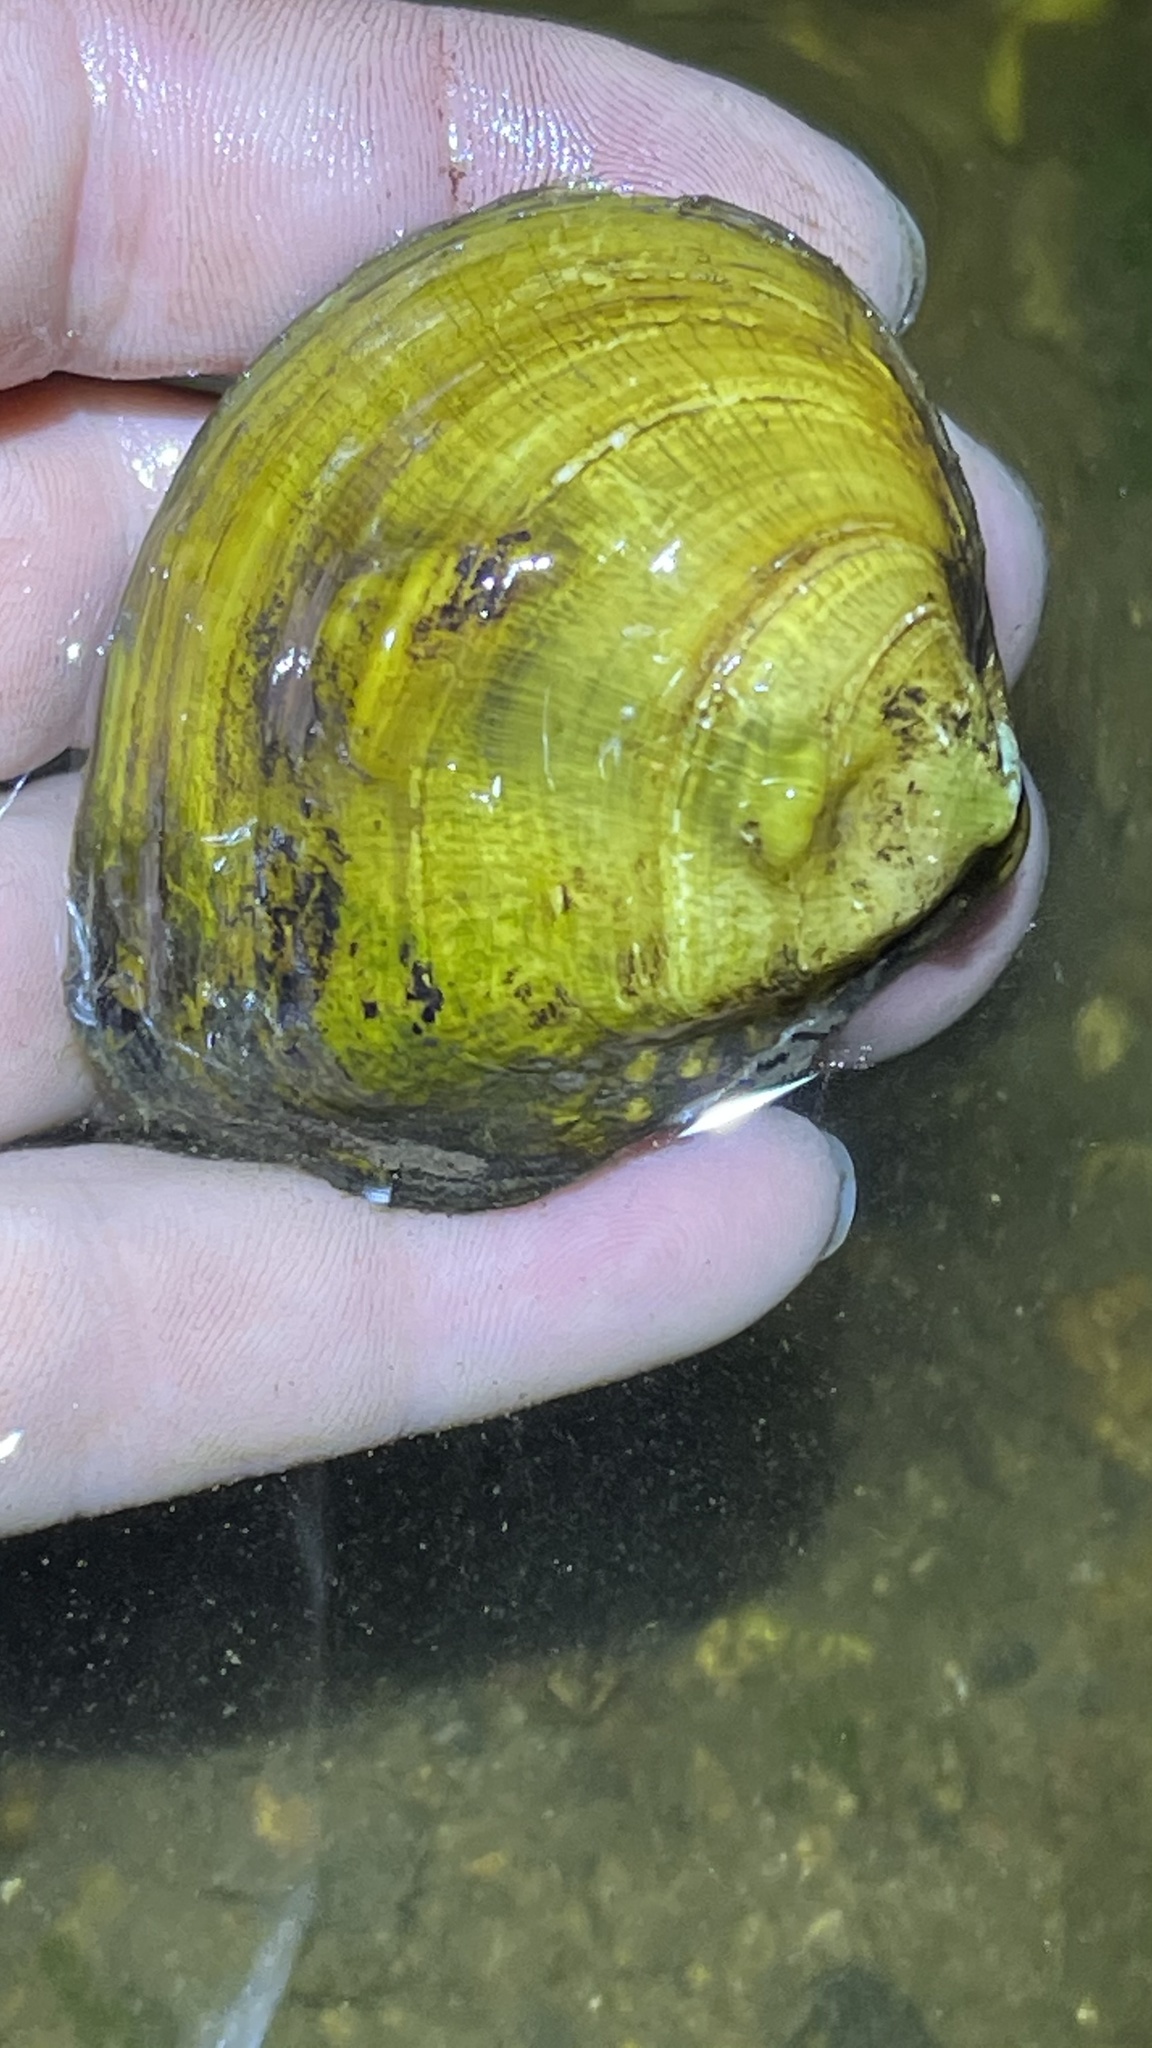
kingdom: Animalia
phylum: Mollusca
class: Bivalvia
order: Unionida
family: Unionidae
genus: Obliquaria
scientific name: Obliquaria reflexa
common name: Threehorn wartyback
